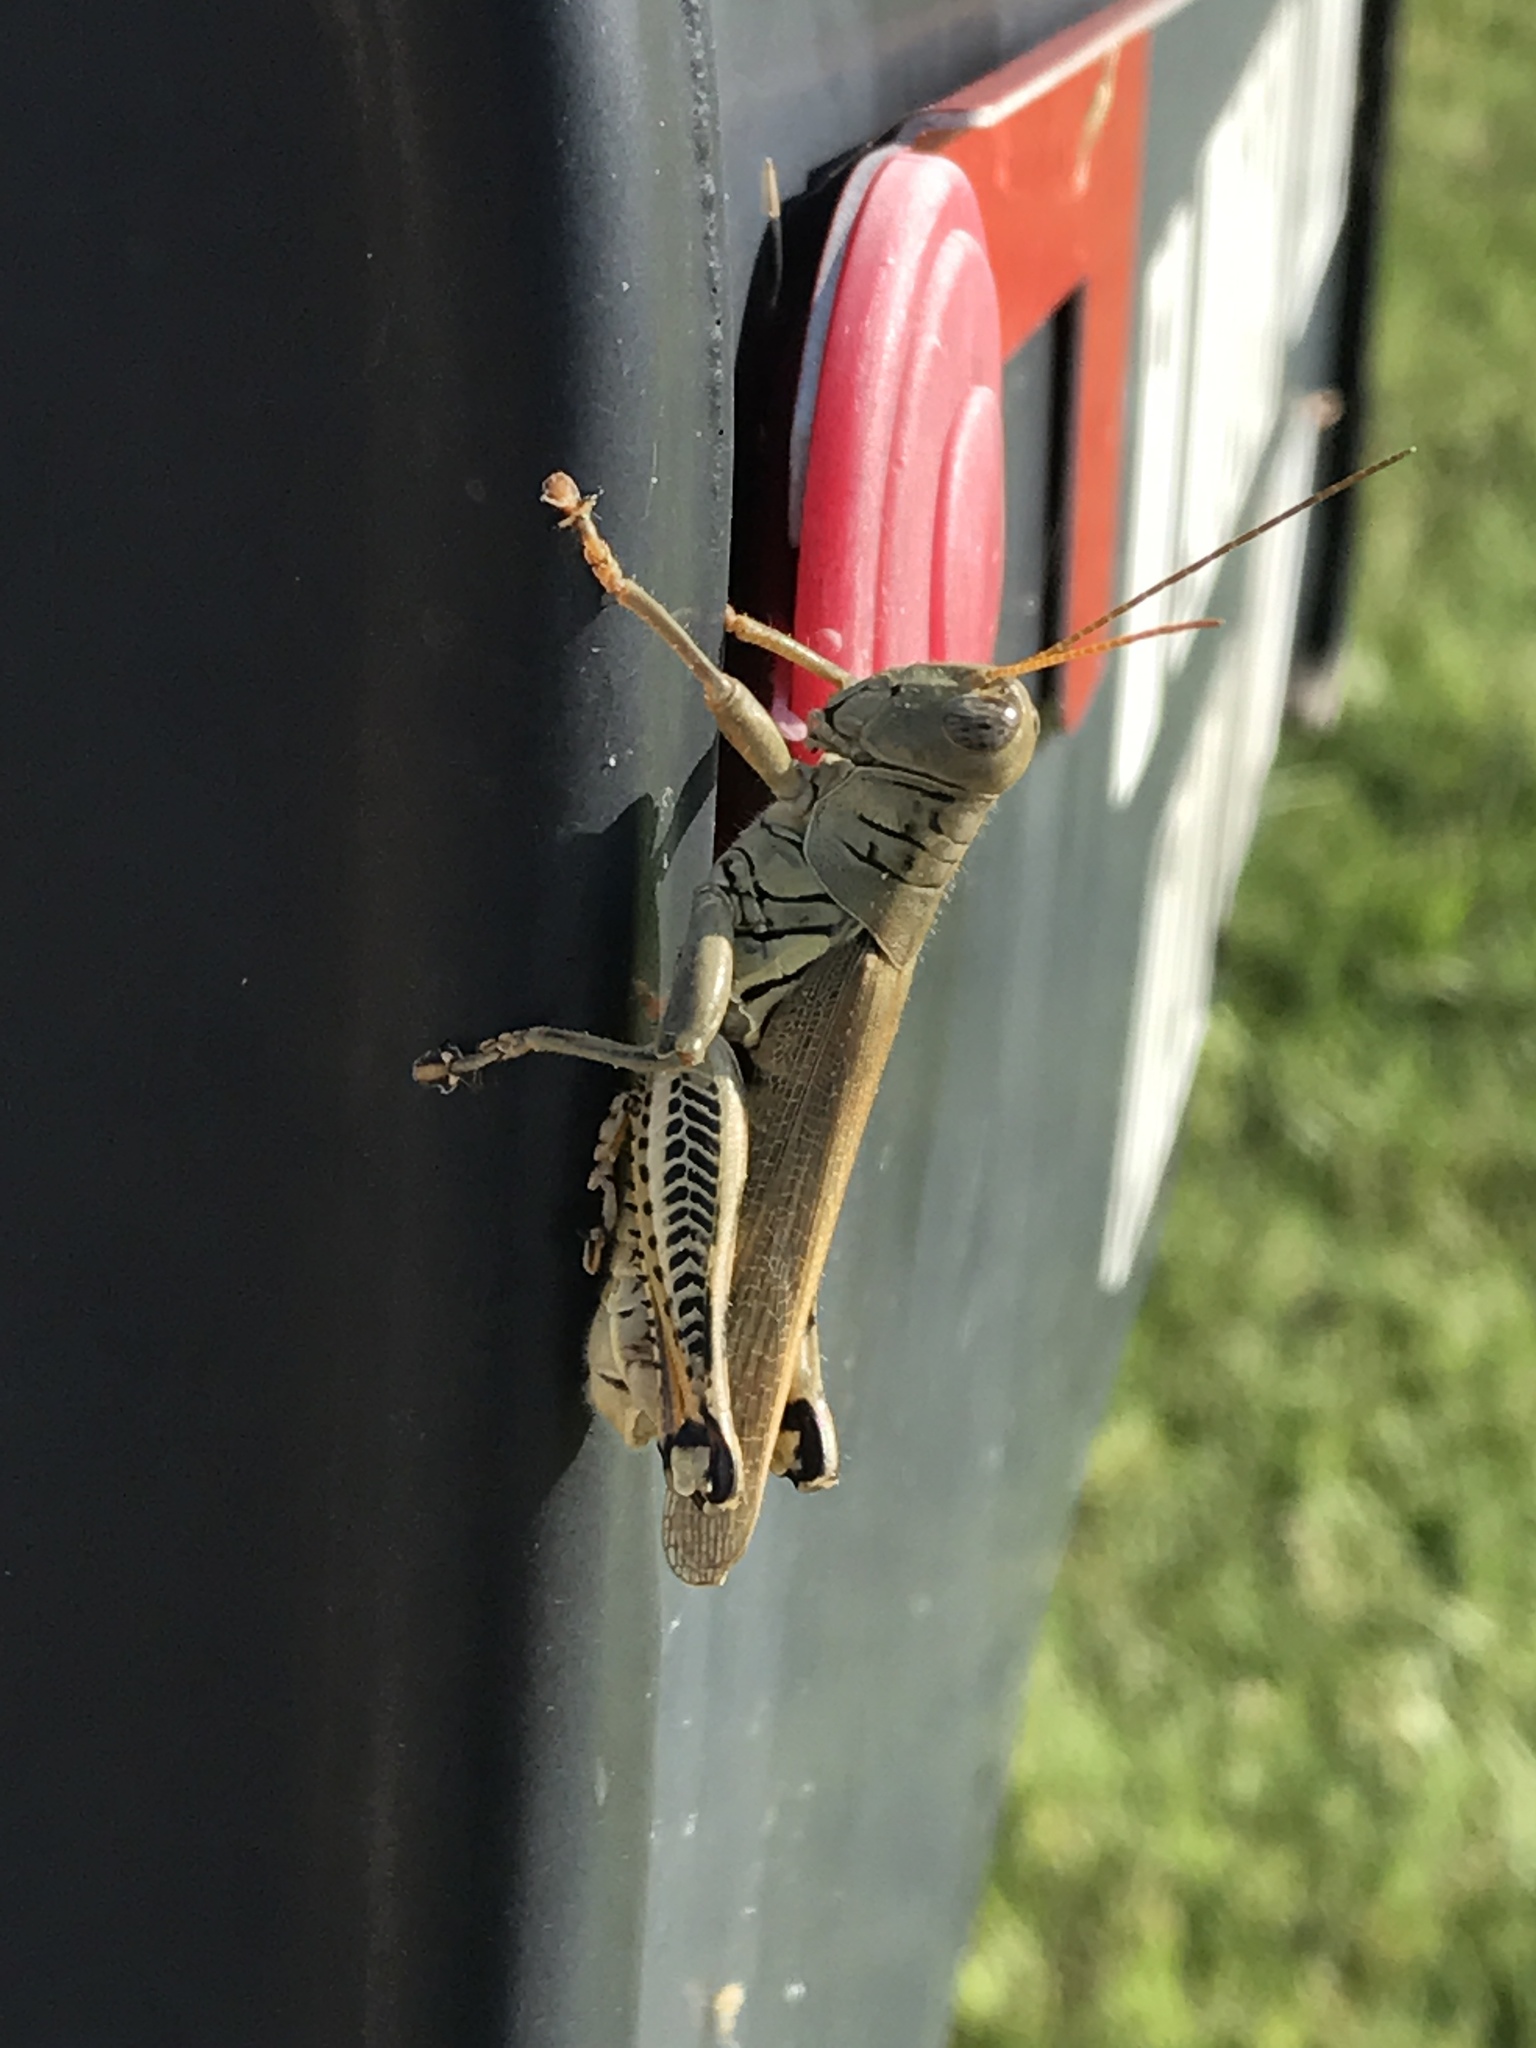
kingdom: Animalia
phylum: Arthropoda
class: Insecta
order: Orthoptera
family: Acrididae
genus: Melanoplus
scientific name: Melanoplus differentialis
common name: Differential grasshopper
